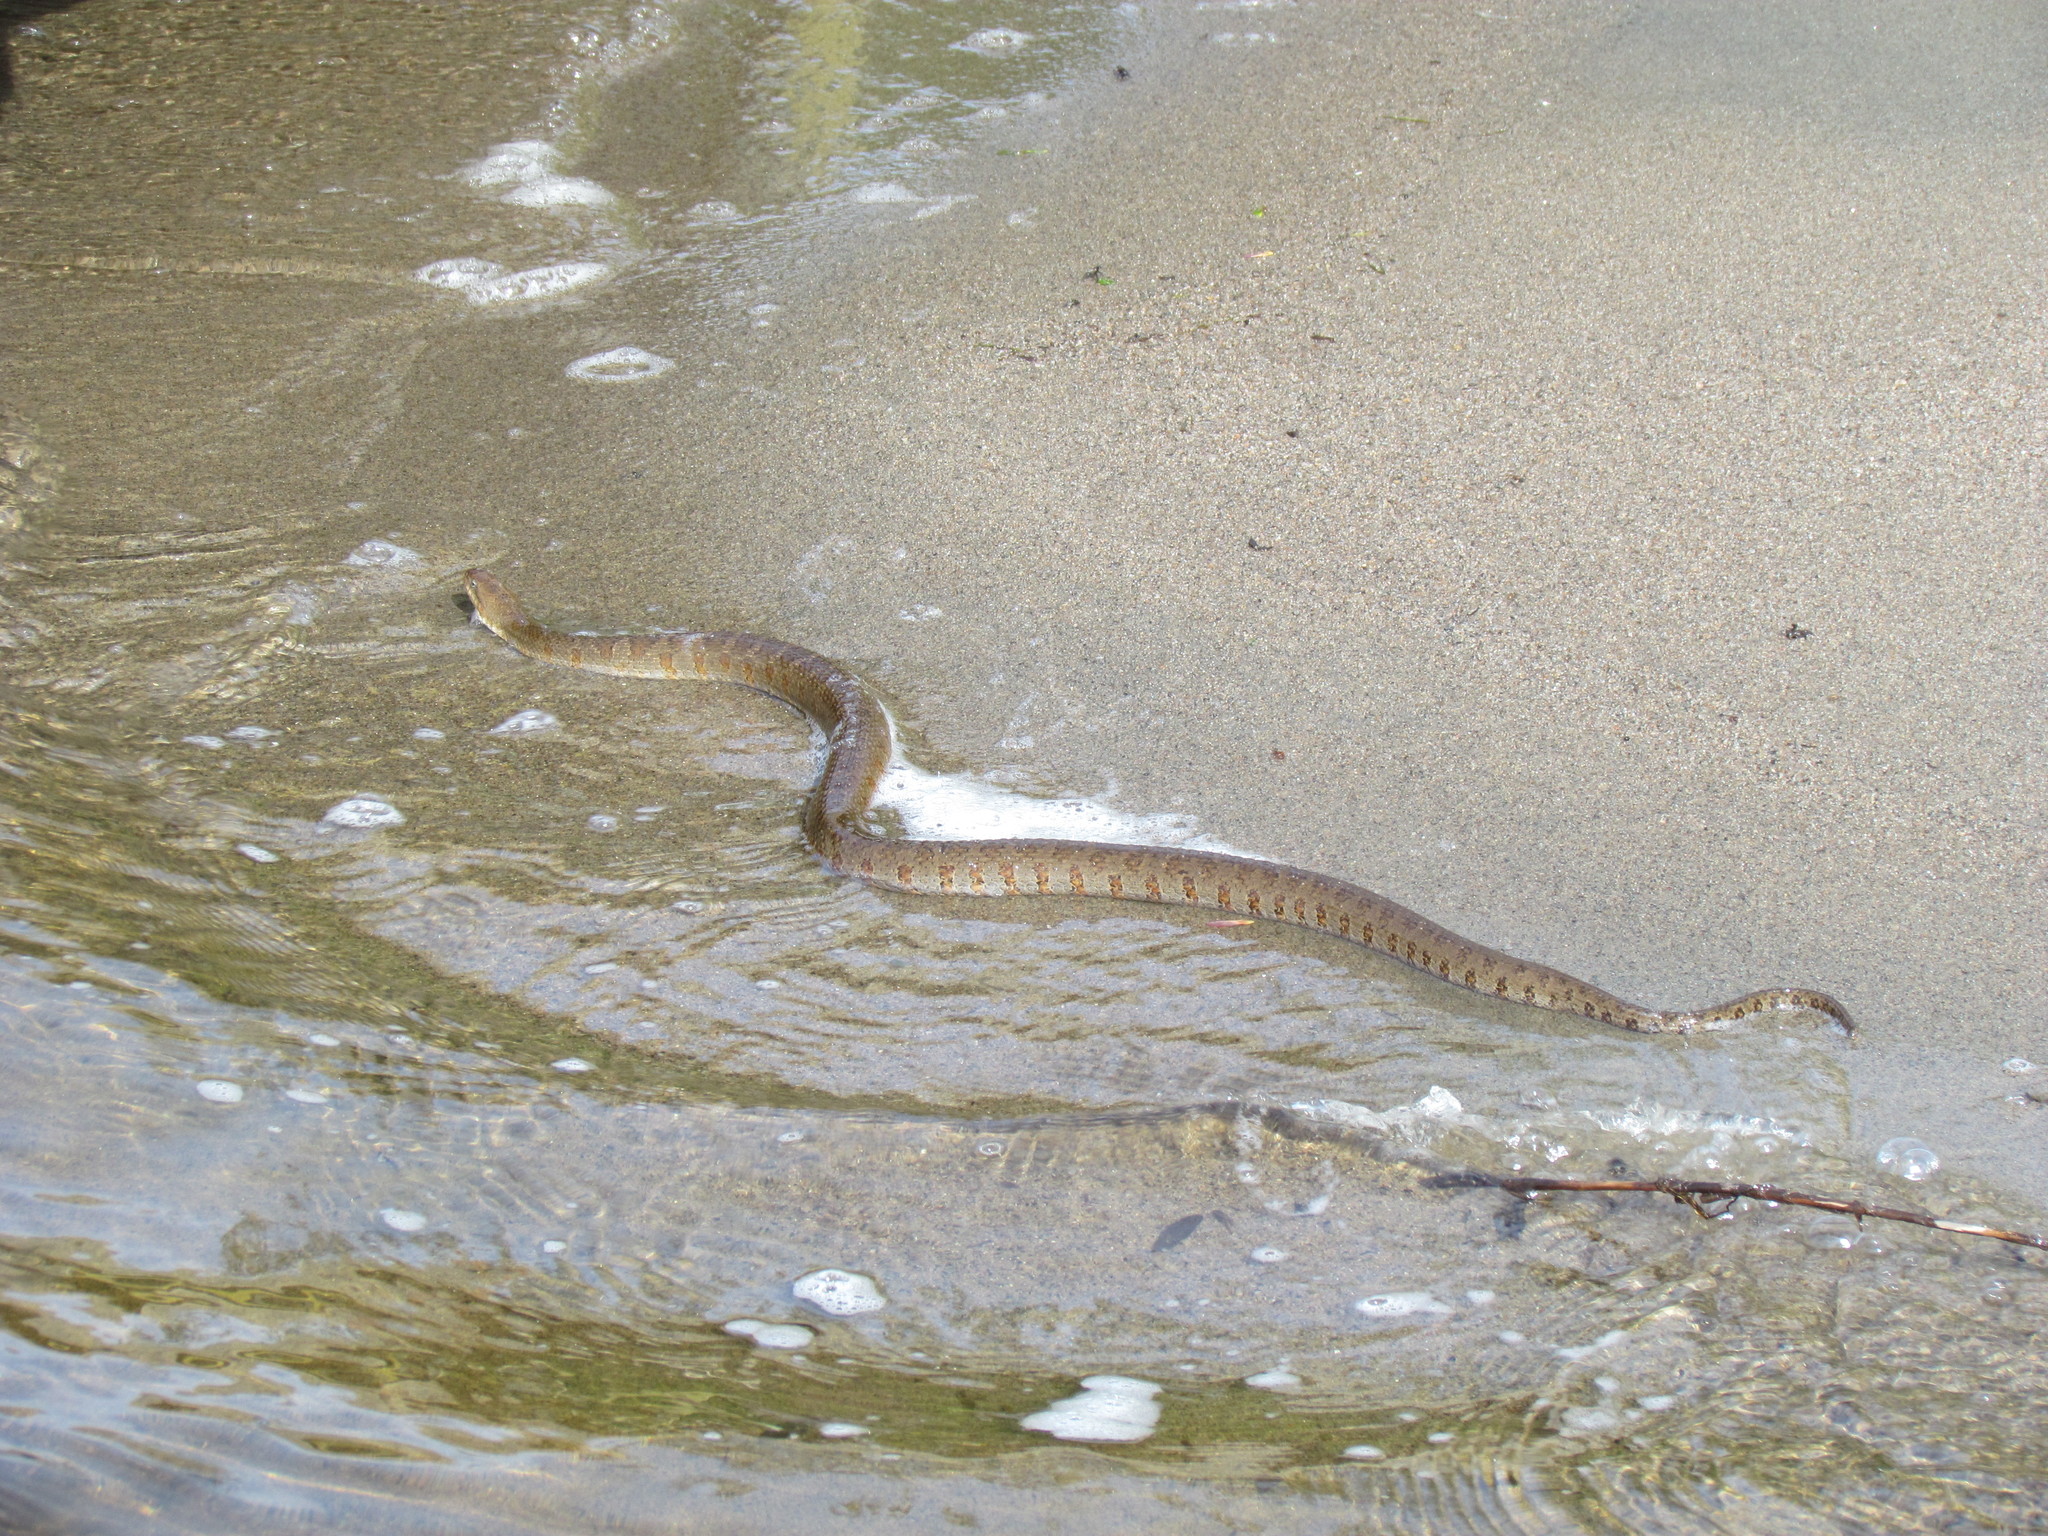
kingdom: Animalia
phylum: Chordata
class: Squamata
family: Colubridae
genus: Nerodia
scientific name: Nerodia sipedon
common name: Northern water snake
